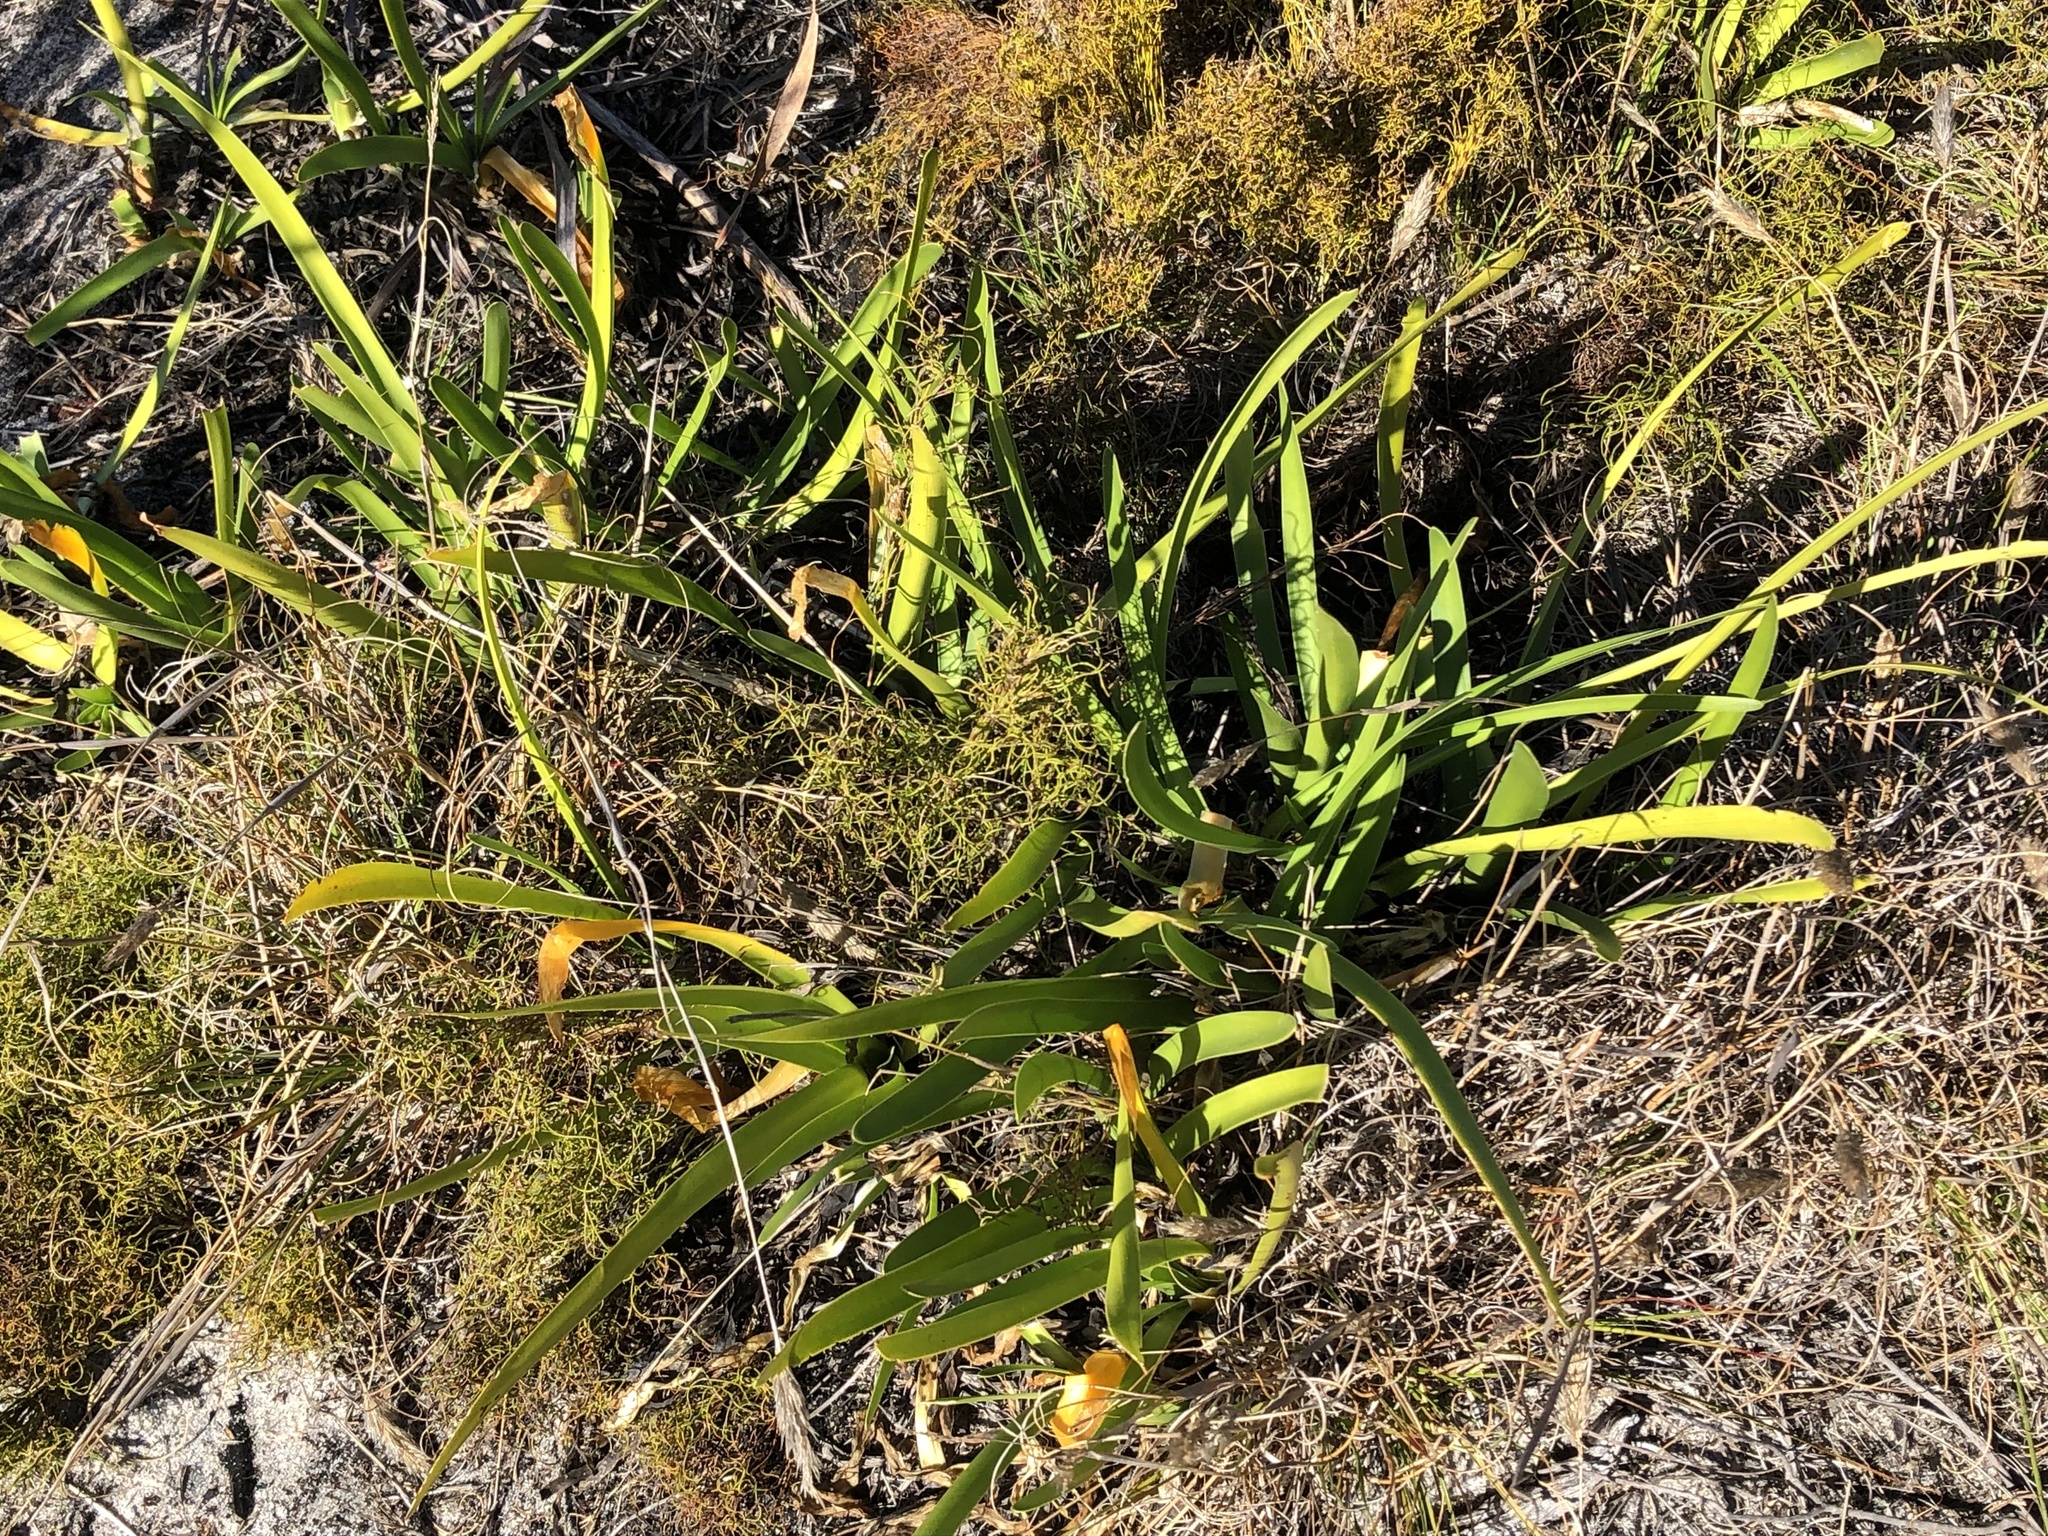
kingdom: Plantae
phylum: Tracheophyta
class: Liliopsida
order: Asparagales
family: Amaryllidaceae
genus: Agapanthus
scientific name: Agapanthus africanus
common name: Lily-of-the-nile
